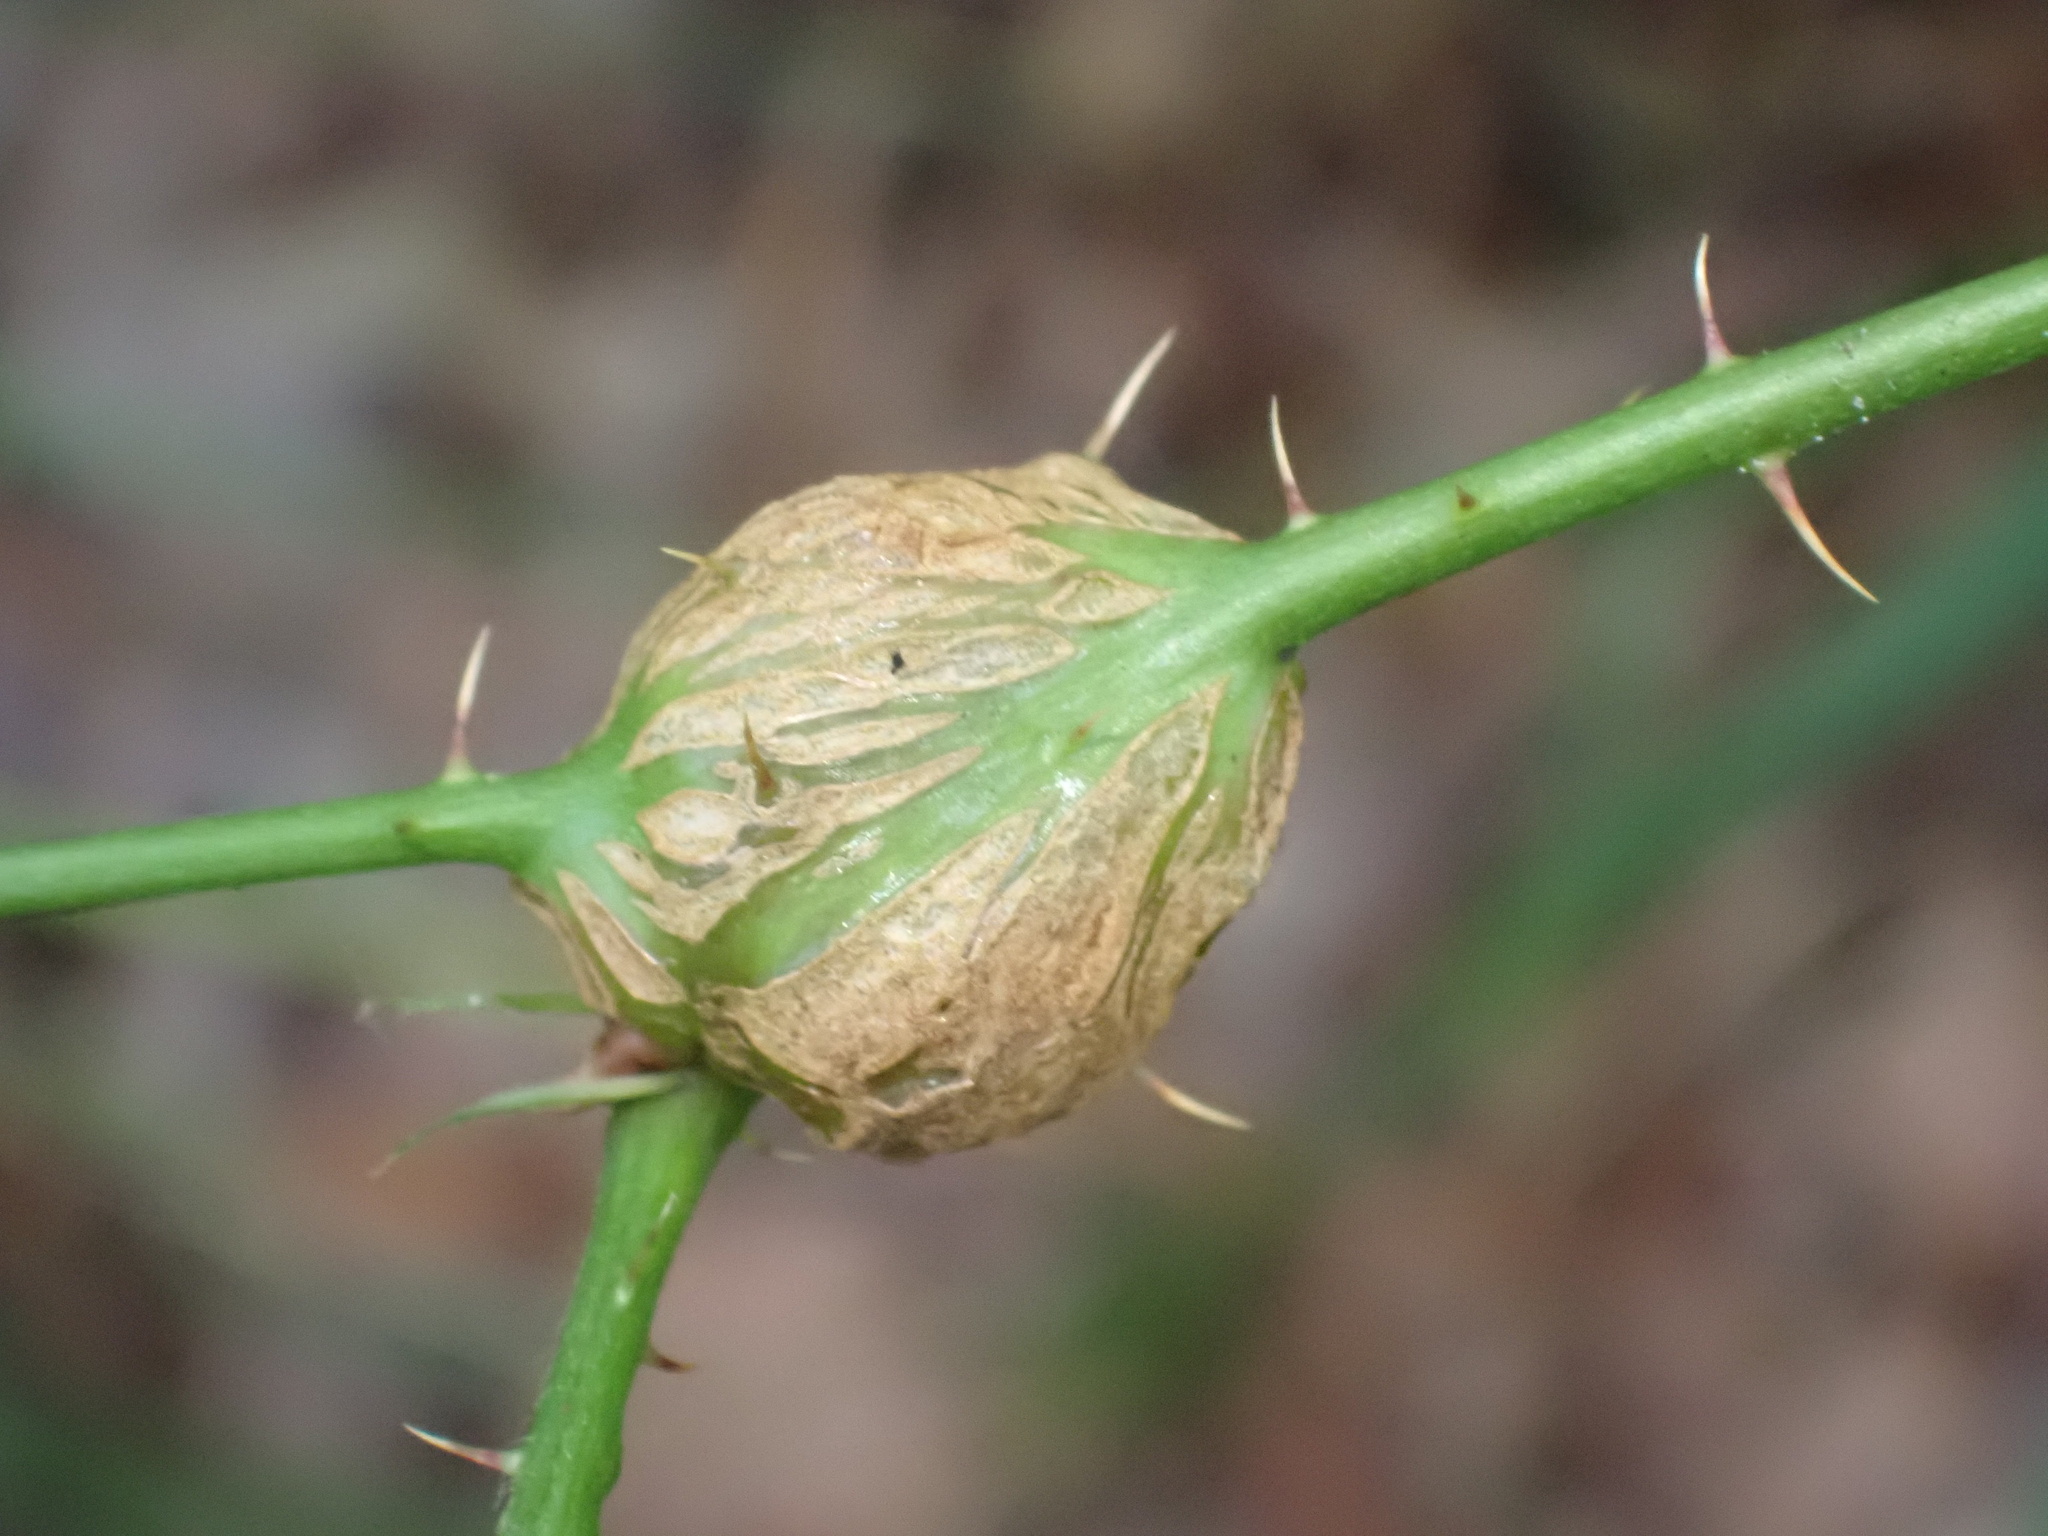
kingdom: Animalia
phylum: Arthropoda
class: Insecta
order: Diptera
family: Cecidomyiidae
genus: Lasioptera
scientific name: Lasioptera rubi
